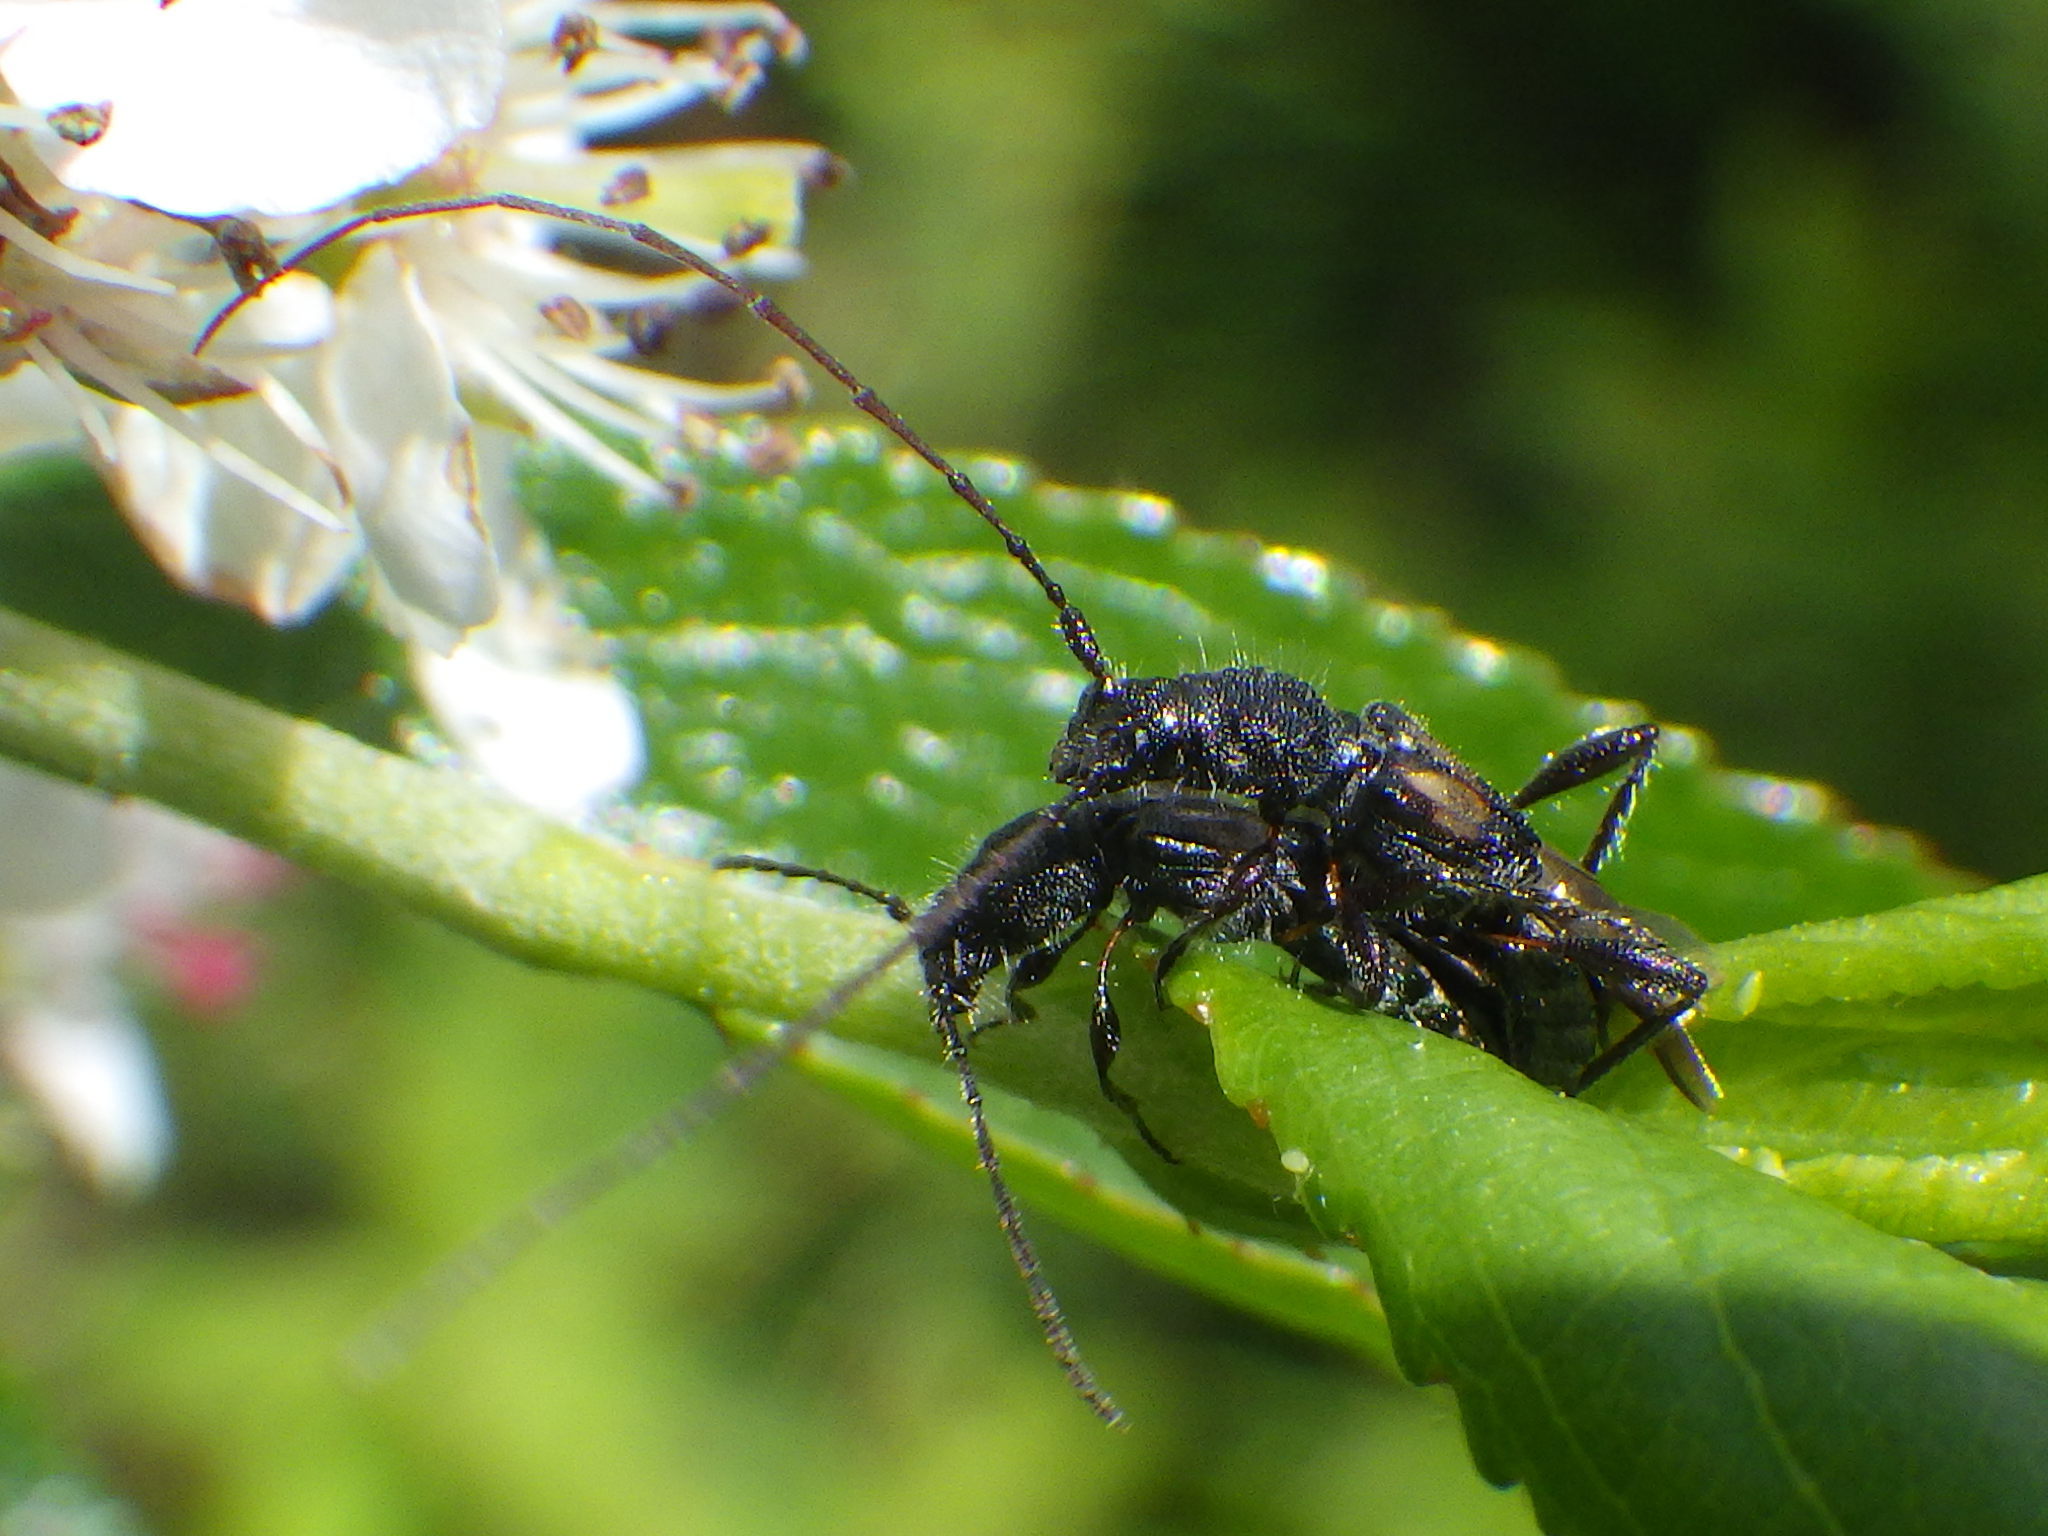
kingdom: Animalia
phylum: Arthropoda
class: Insecta
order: Coleoptera
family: Cerambycidae
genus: Molorchus
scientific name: Molorchus bimaculatus
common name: Bimaculate longhorn beetle
